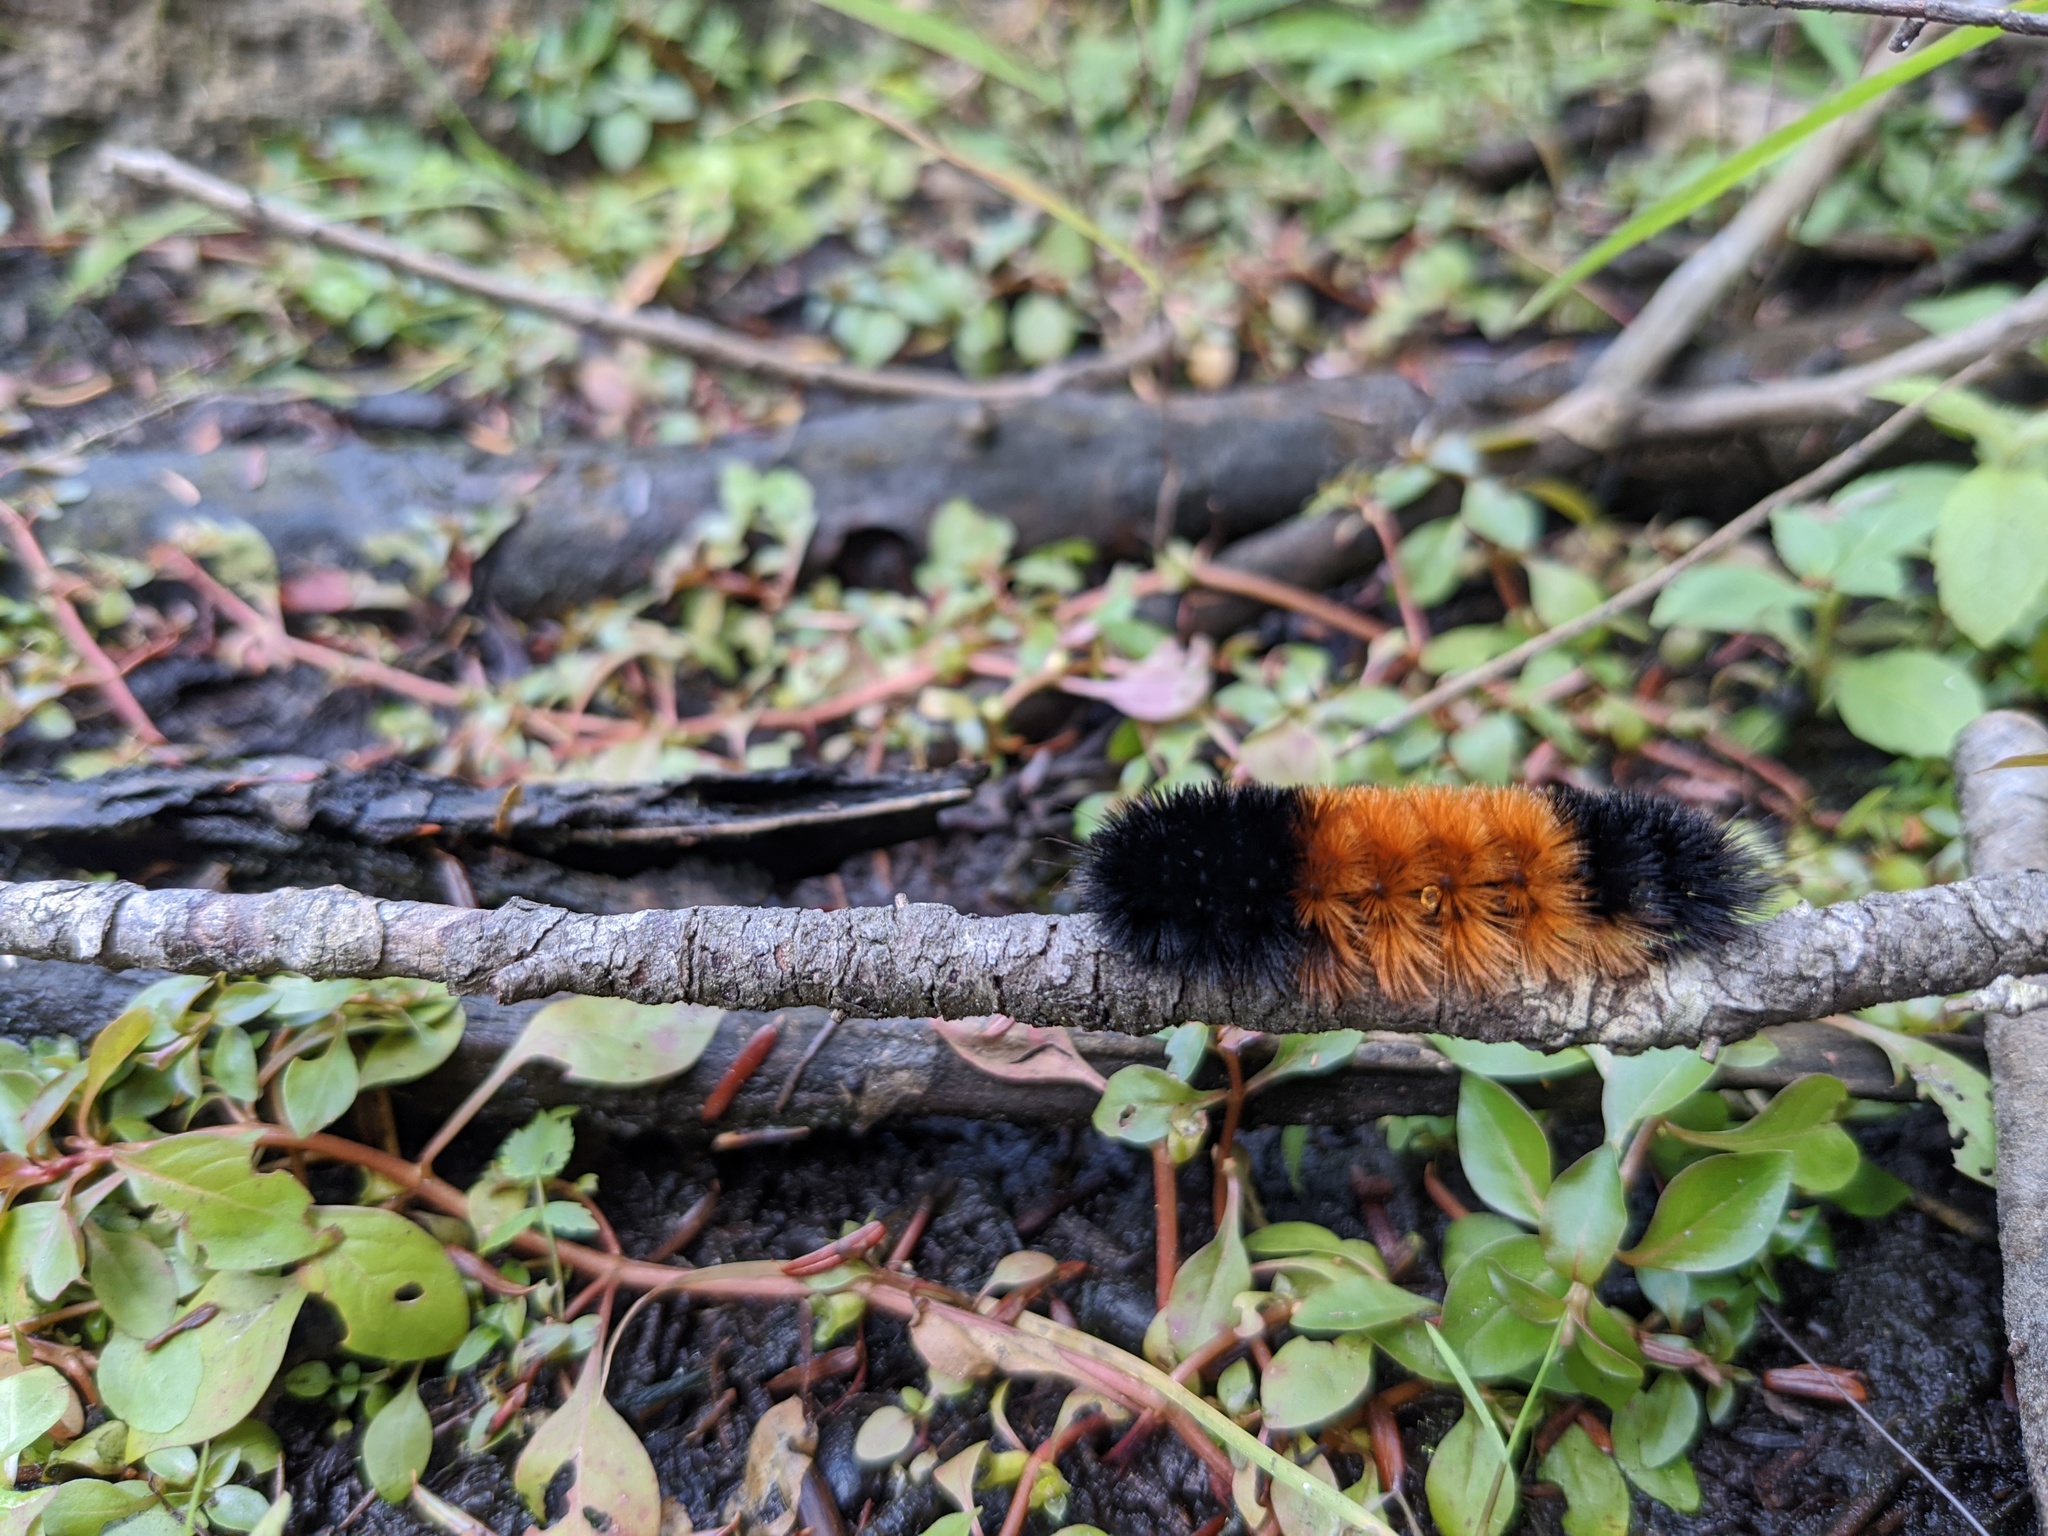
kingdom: Animalia
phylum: Arthropoda
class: Insecta
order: Lepidoptera
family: Erebidae
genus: Pyrrharctia
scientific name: Pyrrharctia isabella
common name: Isabella tiger moth
